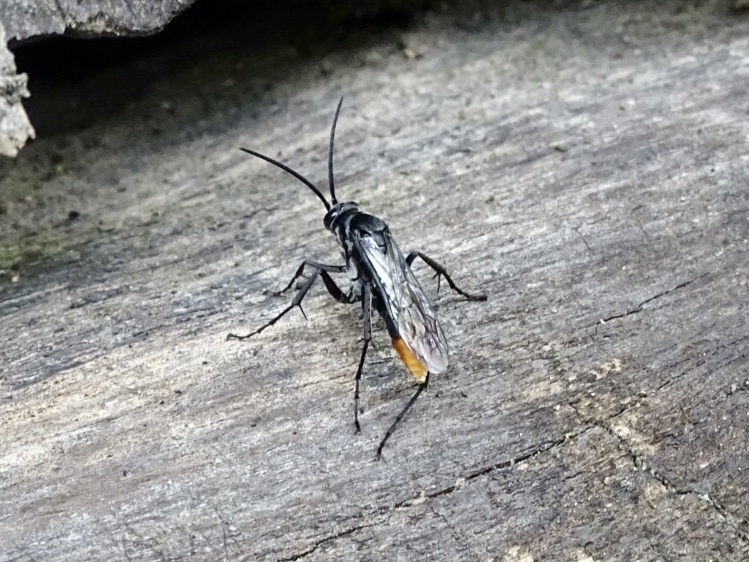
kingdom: Animalia
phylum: Arthropoda
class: Insecta
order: Hymenoptera
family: Pompilidae
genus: Tachypompilus
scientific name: Tachypompilus analis
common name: Spider wasp
